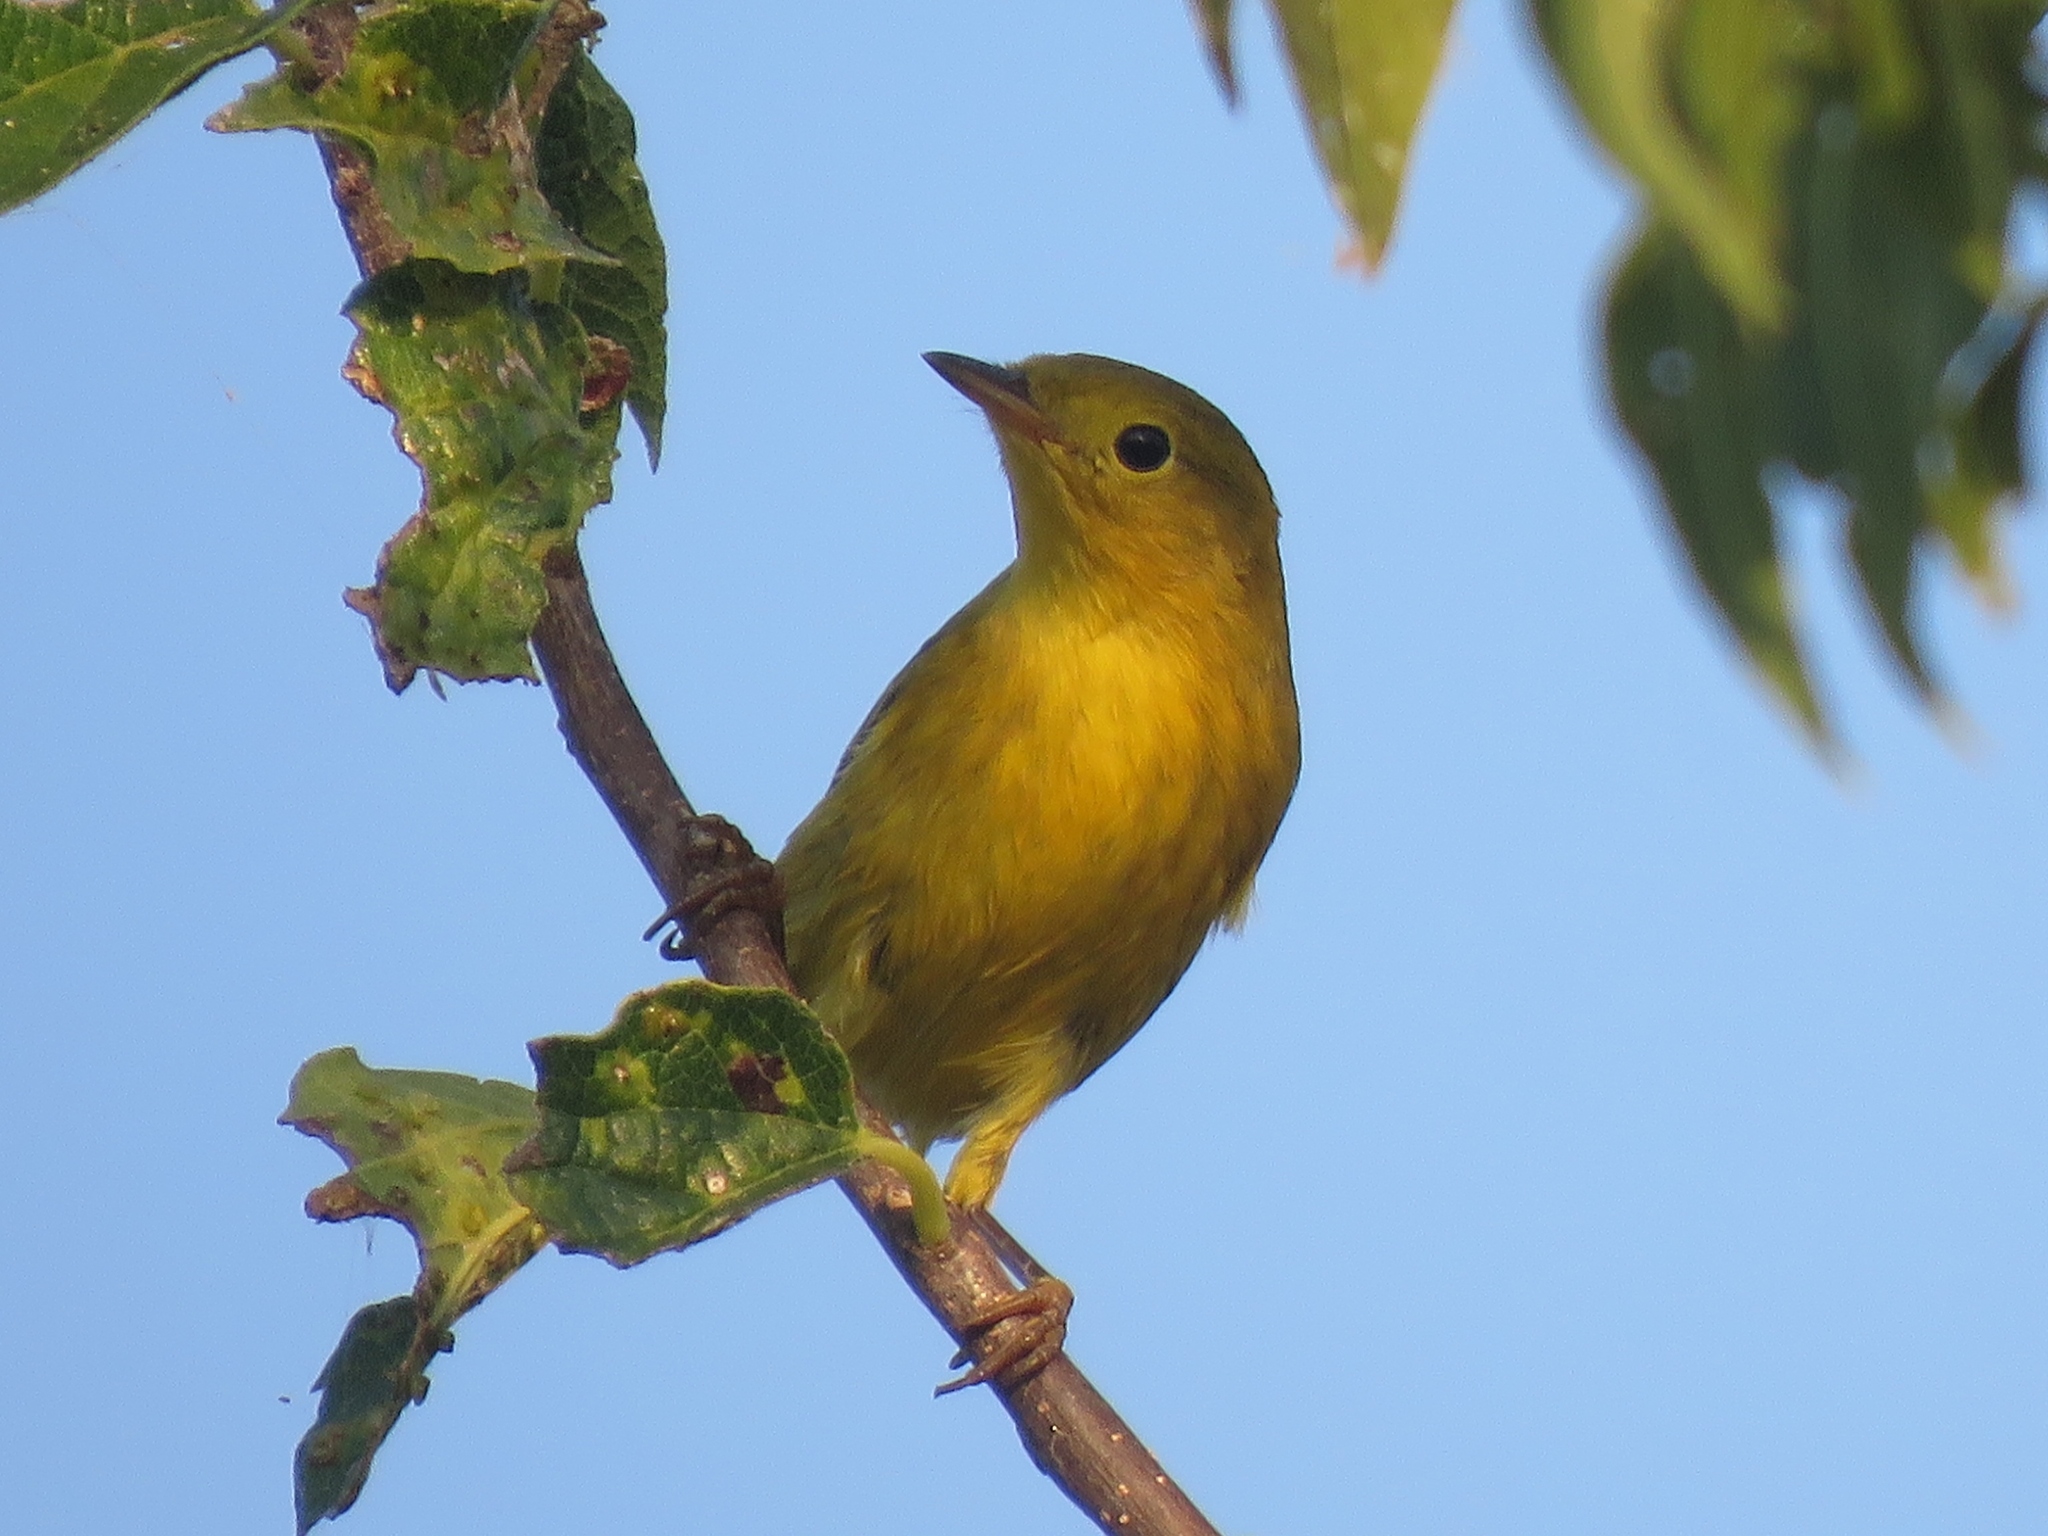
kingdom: Animalia
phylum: Chordata
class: Aves
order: Passeriformes
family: Parulidae
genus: Setophaga
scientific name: Setophaga petechia
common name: Yellow warbler
